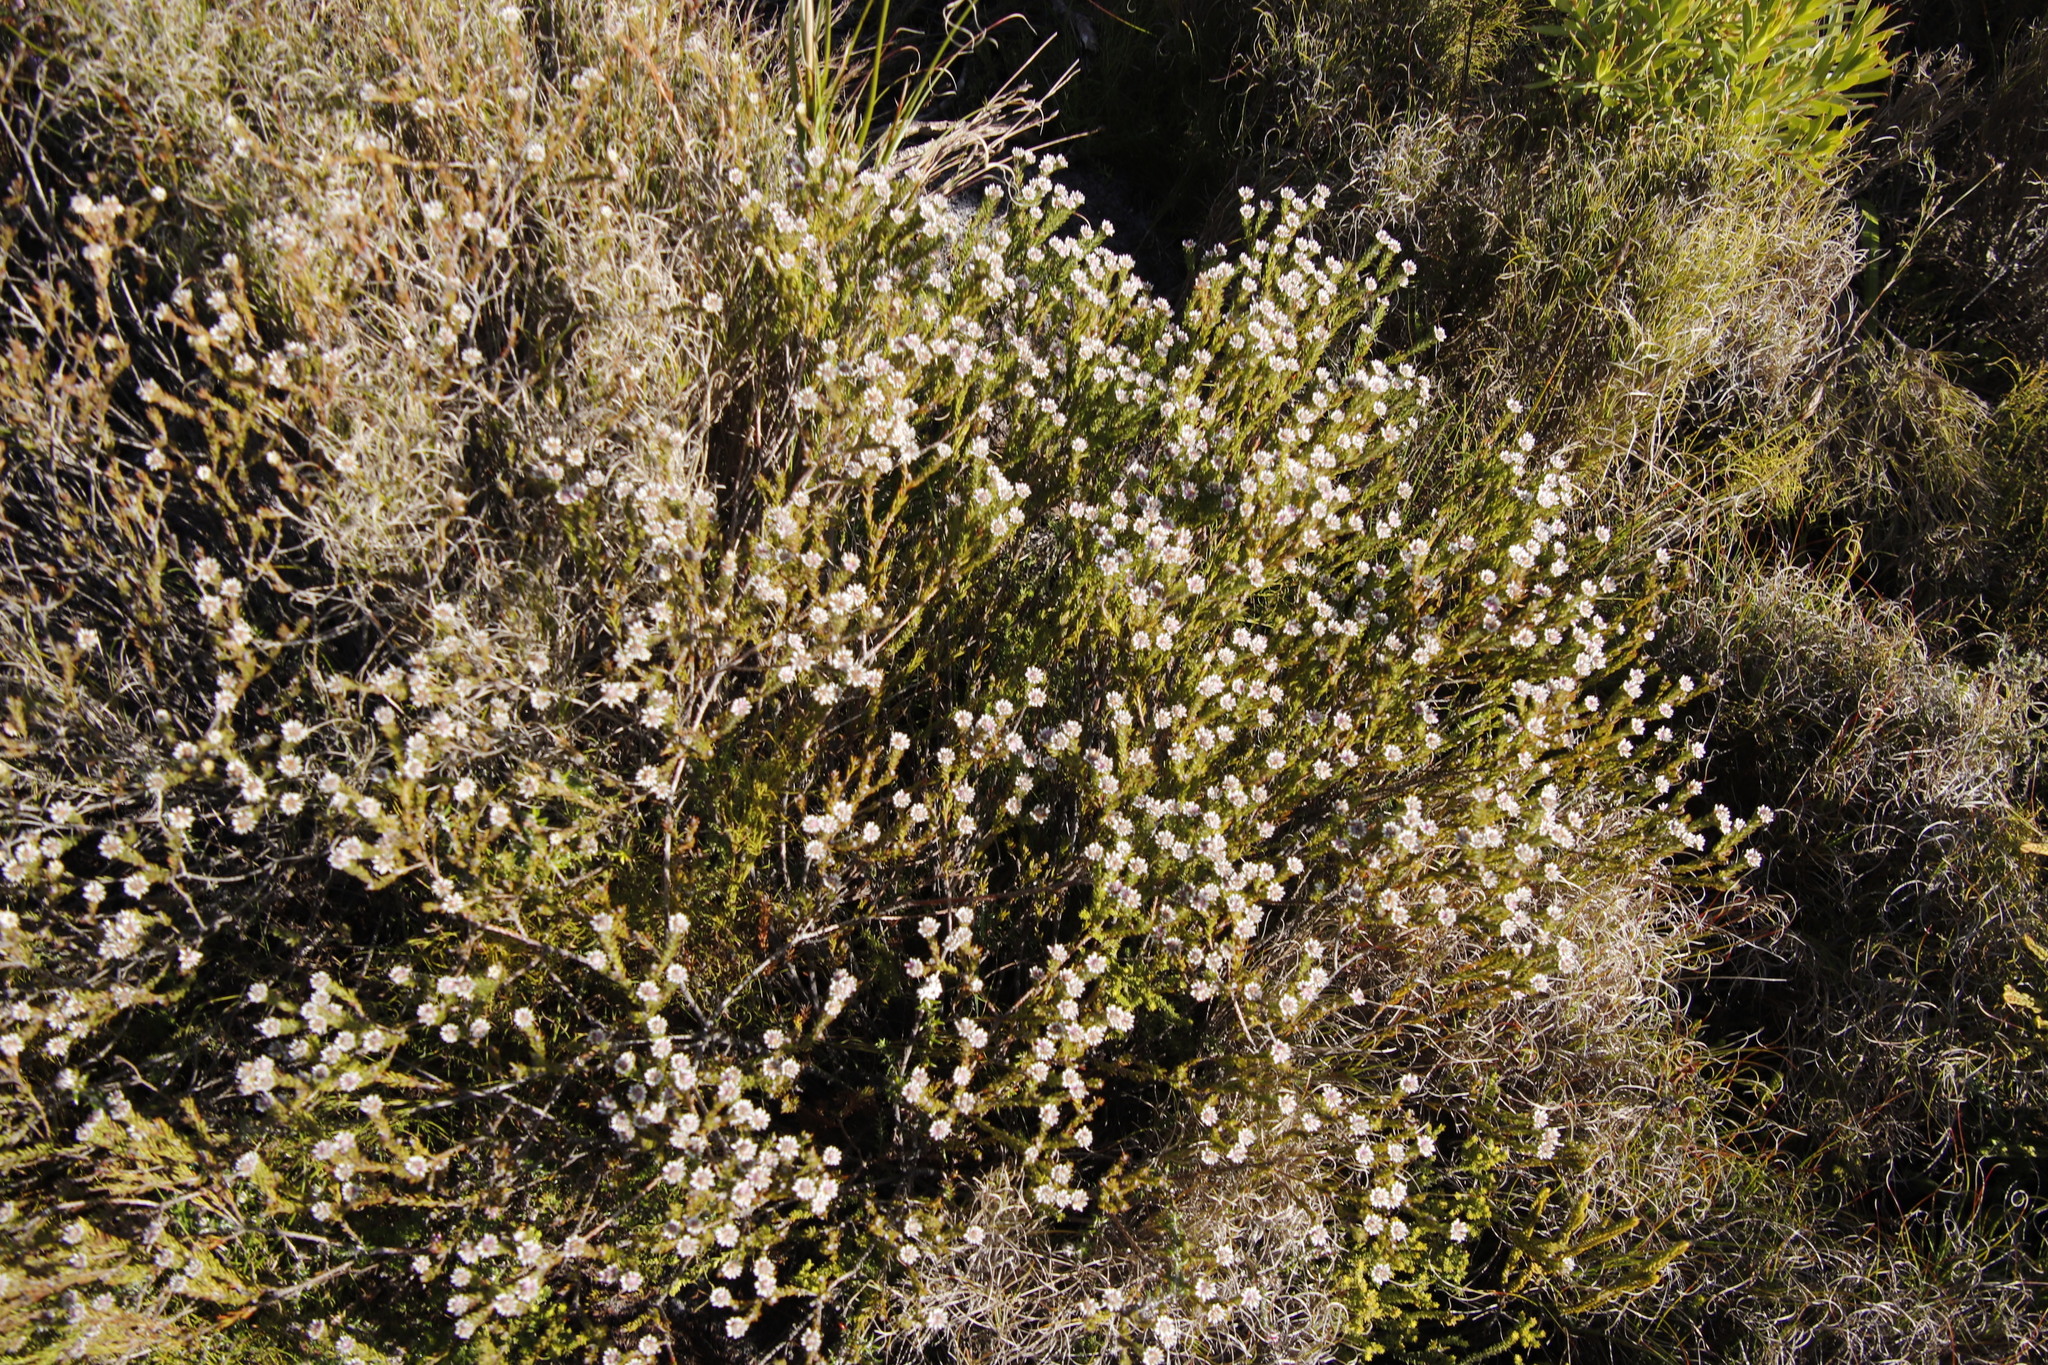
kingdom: Plantae
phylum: Tracheophyta
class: Magnoliopsida
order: Bruniales
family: Bruniaceae
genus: Staavia
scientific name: Staavia radiata
